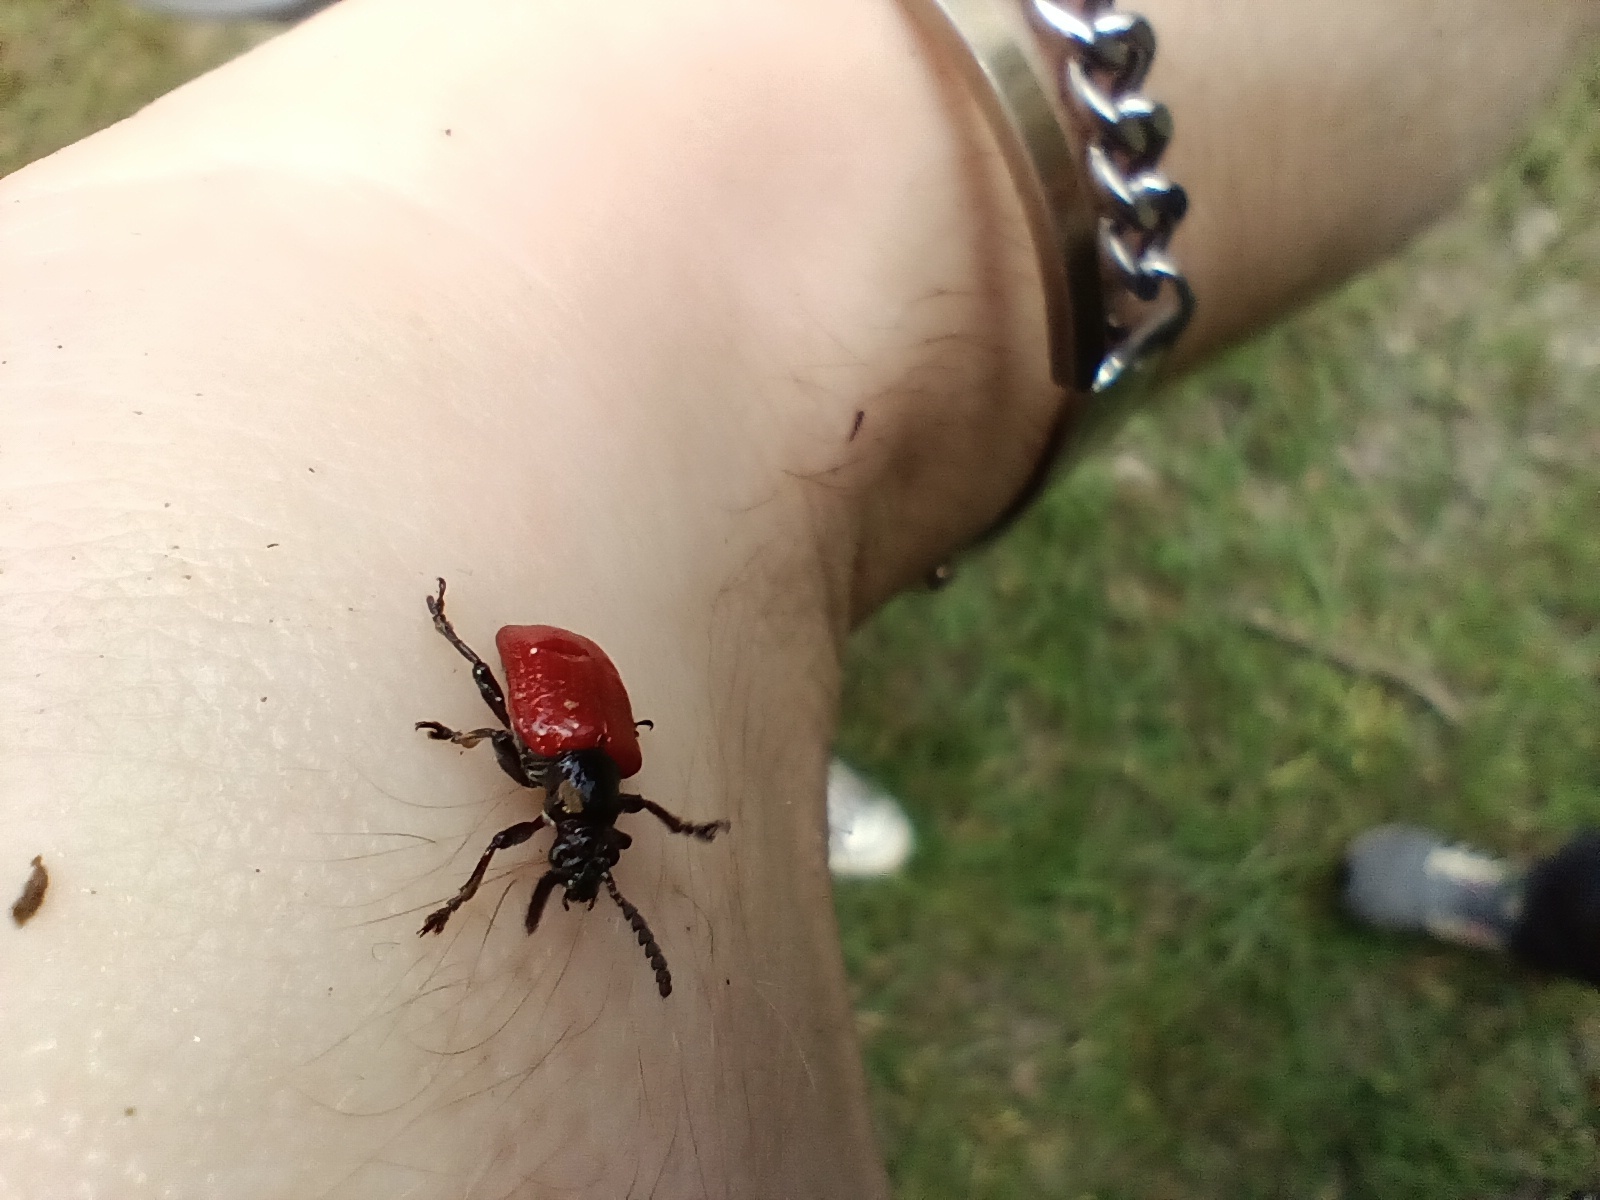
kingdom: Animalia
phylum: Arthropoda
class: Insecta
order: Coleoptera
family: Chrysomelidae
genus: Lilioceris
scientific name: Lilioceris cheni
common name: Leaf beetle
